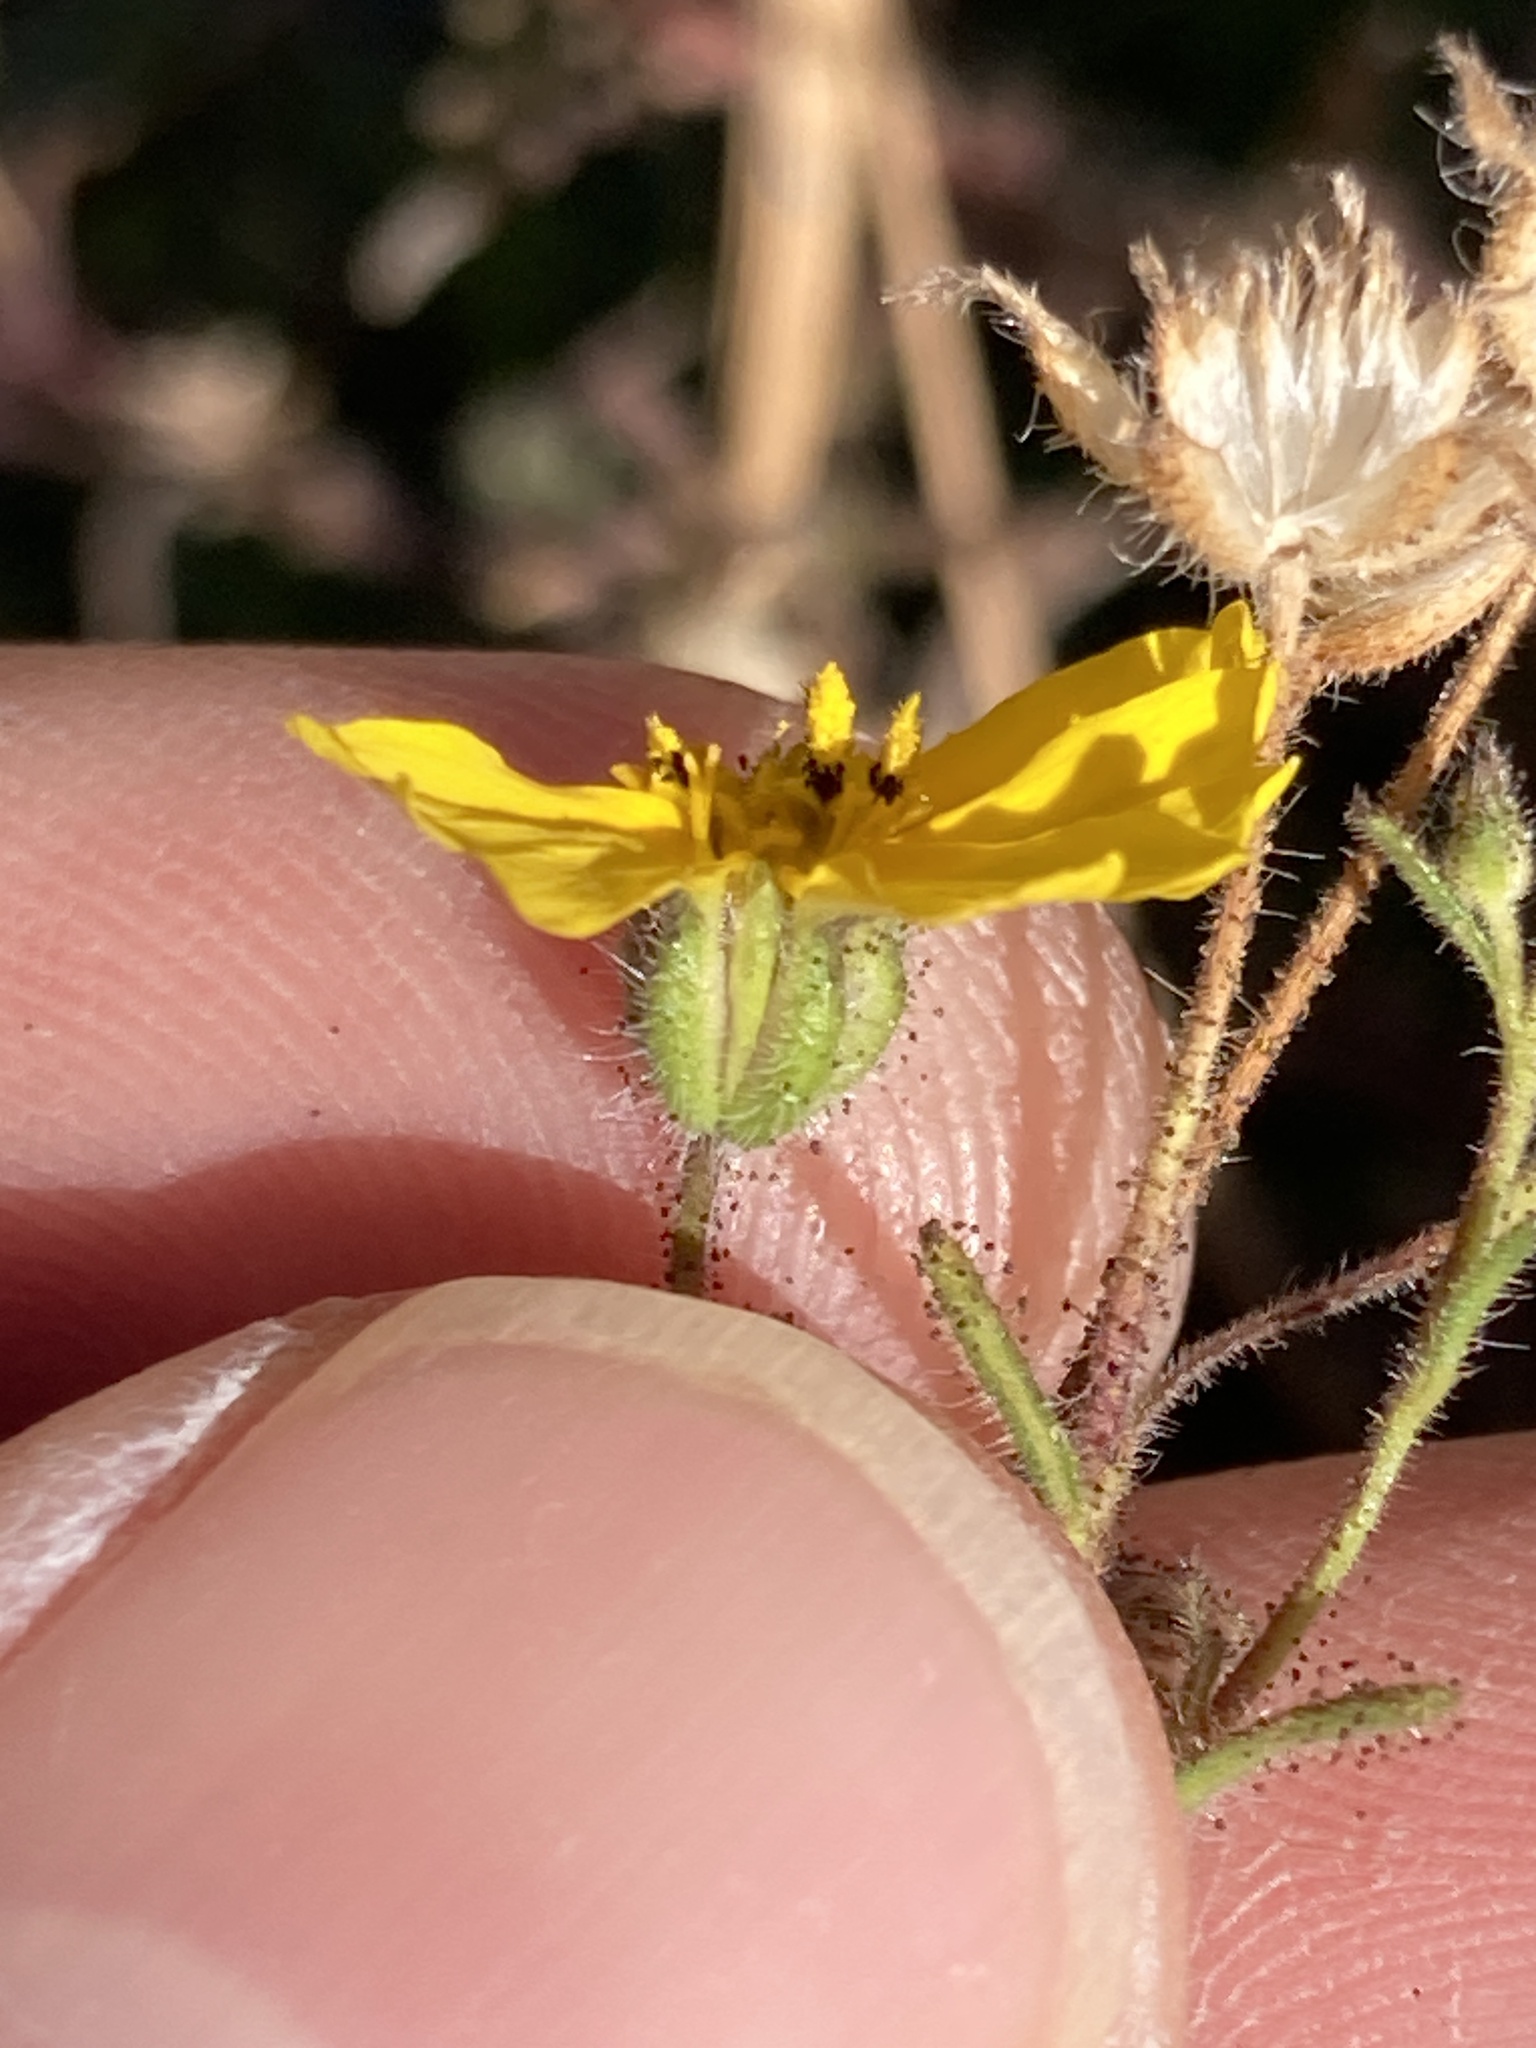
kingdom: Plantae
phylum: Tracheophyta
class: Magnoliopsida
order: Asterales
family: Asteraceae
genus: Madia
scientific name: Madia elegans
